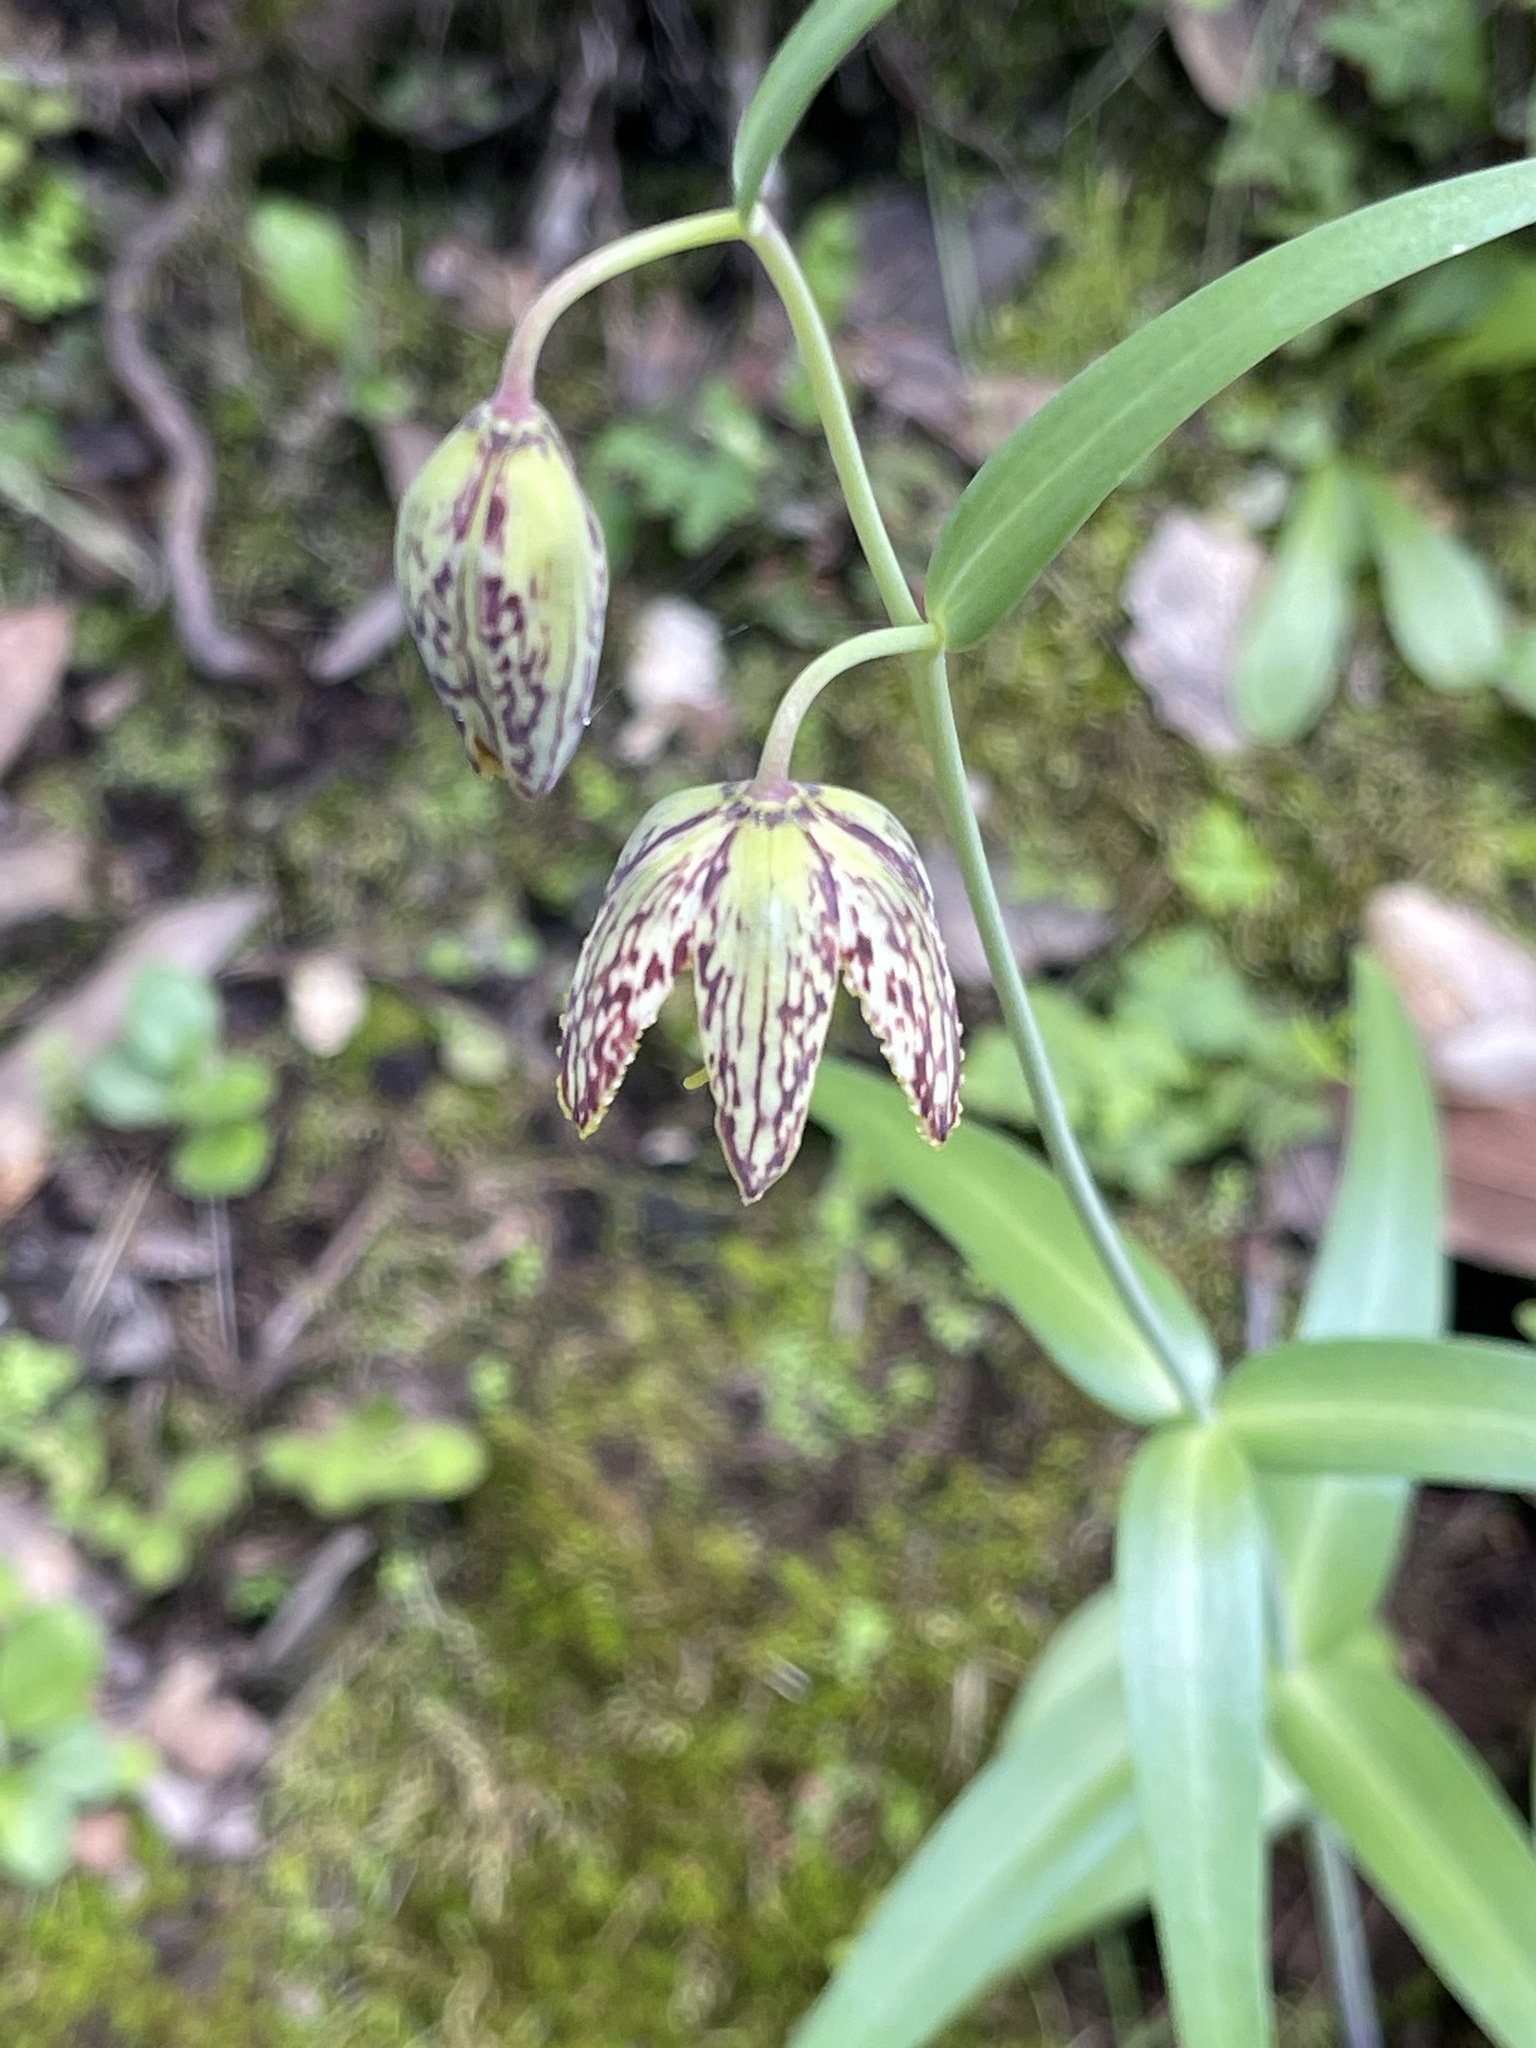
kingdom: Plantae
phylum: Tracheophyta
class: Liliopsida
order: Liliales
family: Liliaceae
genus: Fritillaria
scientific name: Fritillaria affinis
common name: Ojai fritillary
